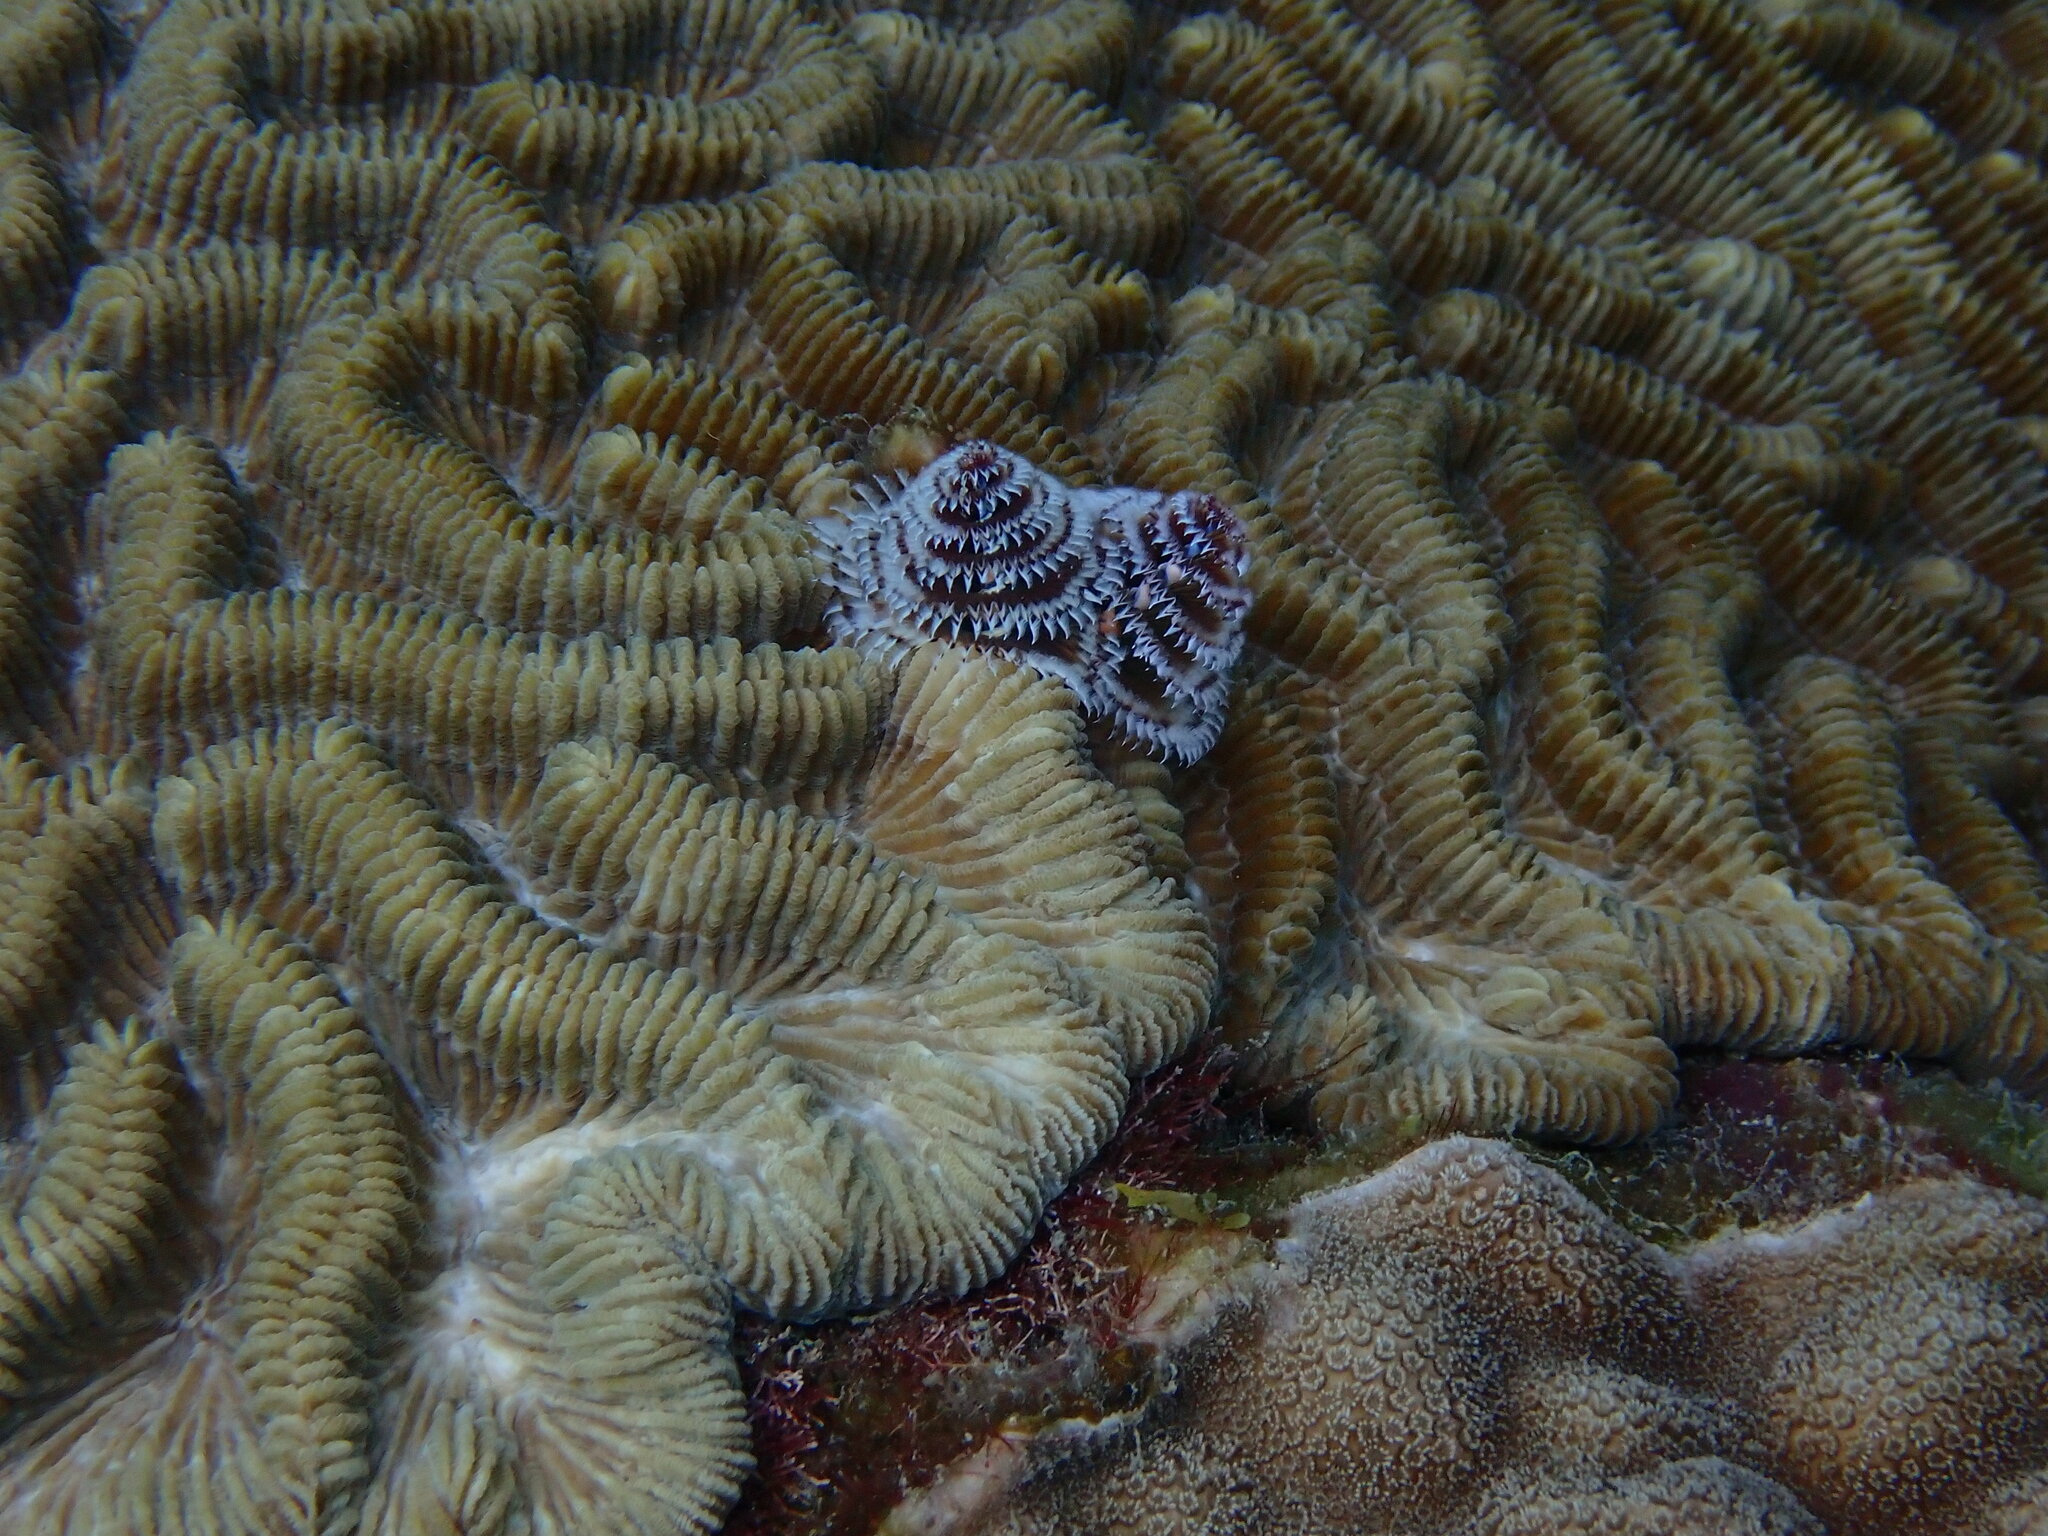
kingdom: Animalia
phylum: Annelida
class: Polychaeta
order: Sabellida
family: Serpulidae
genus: Spirobranchus
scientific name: Spirobranchus giganteus
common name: Christmas tree worm
